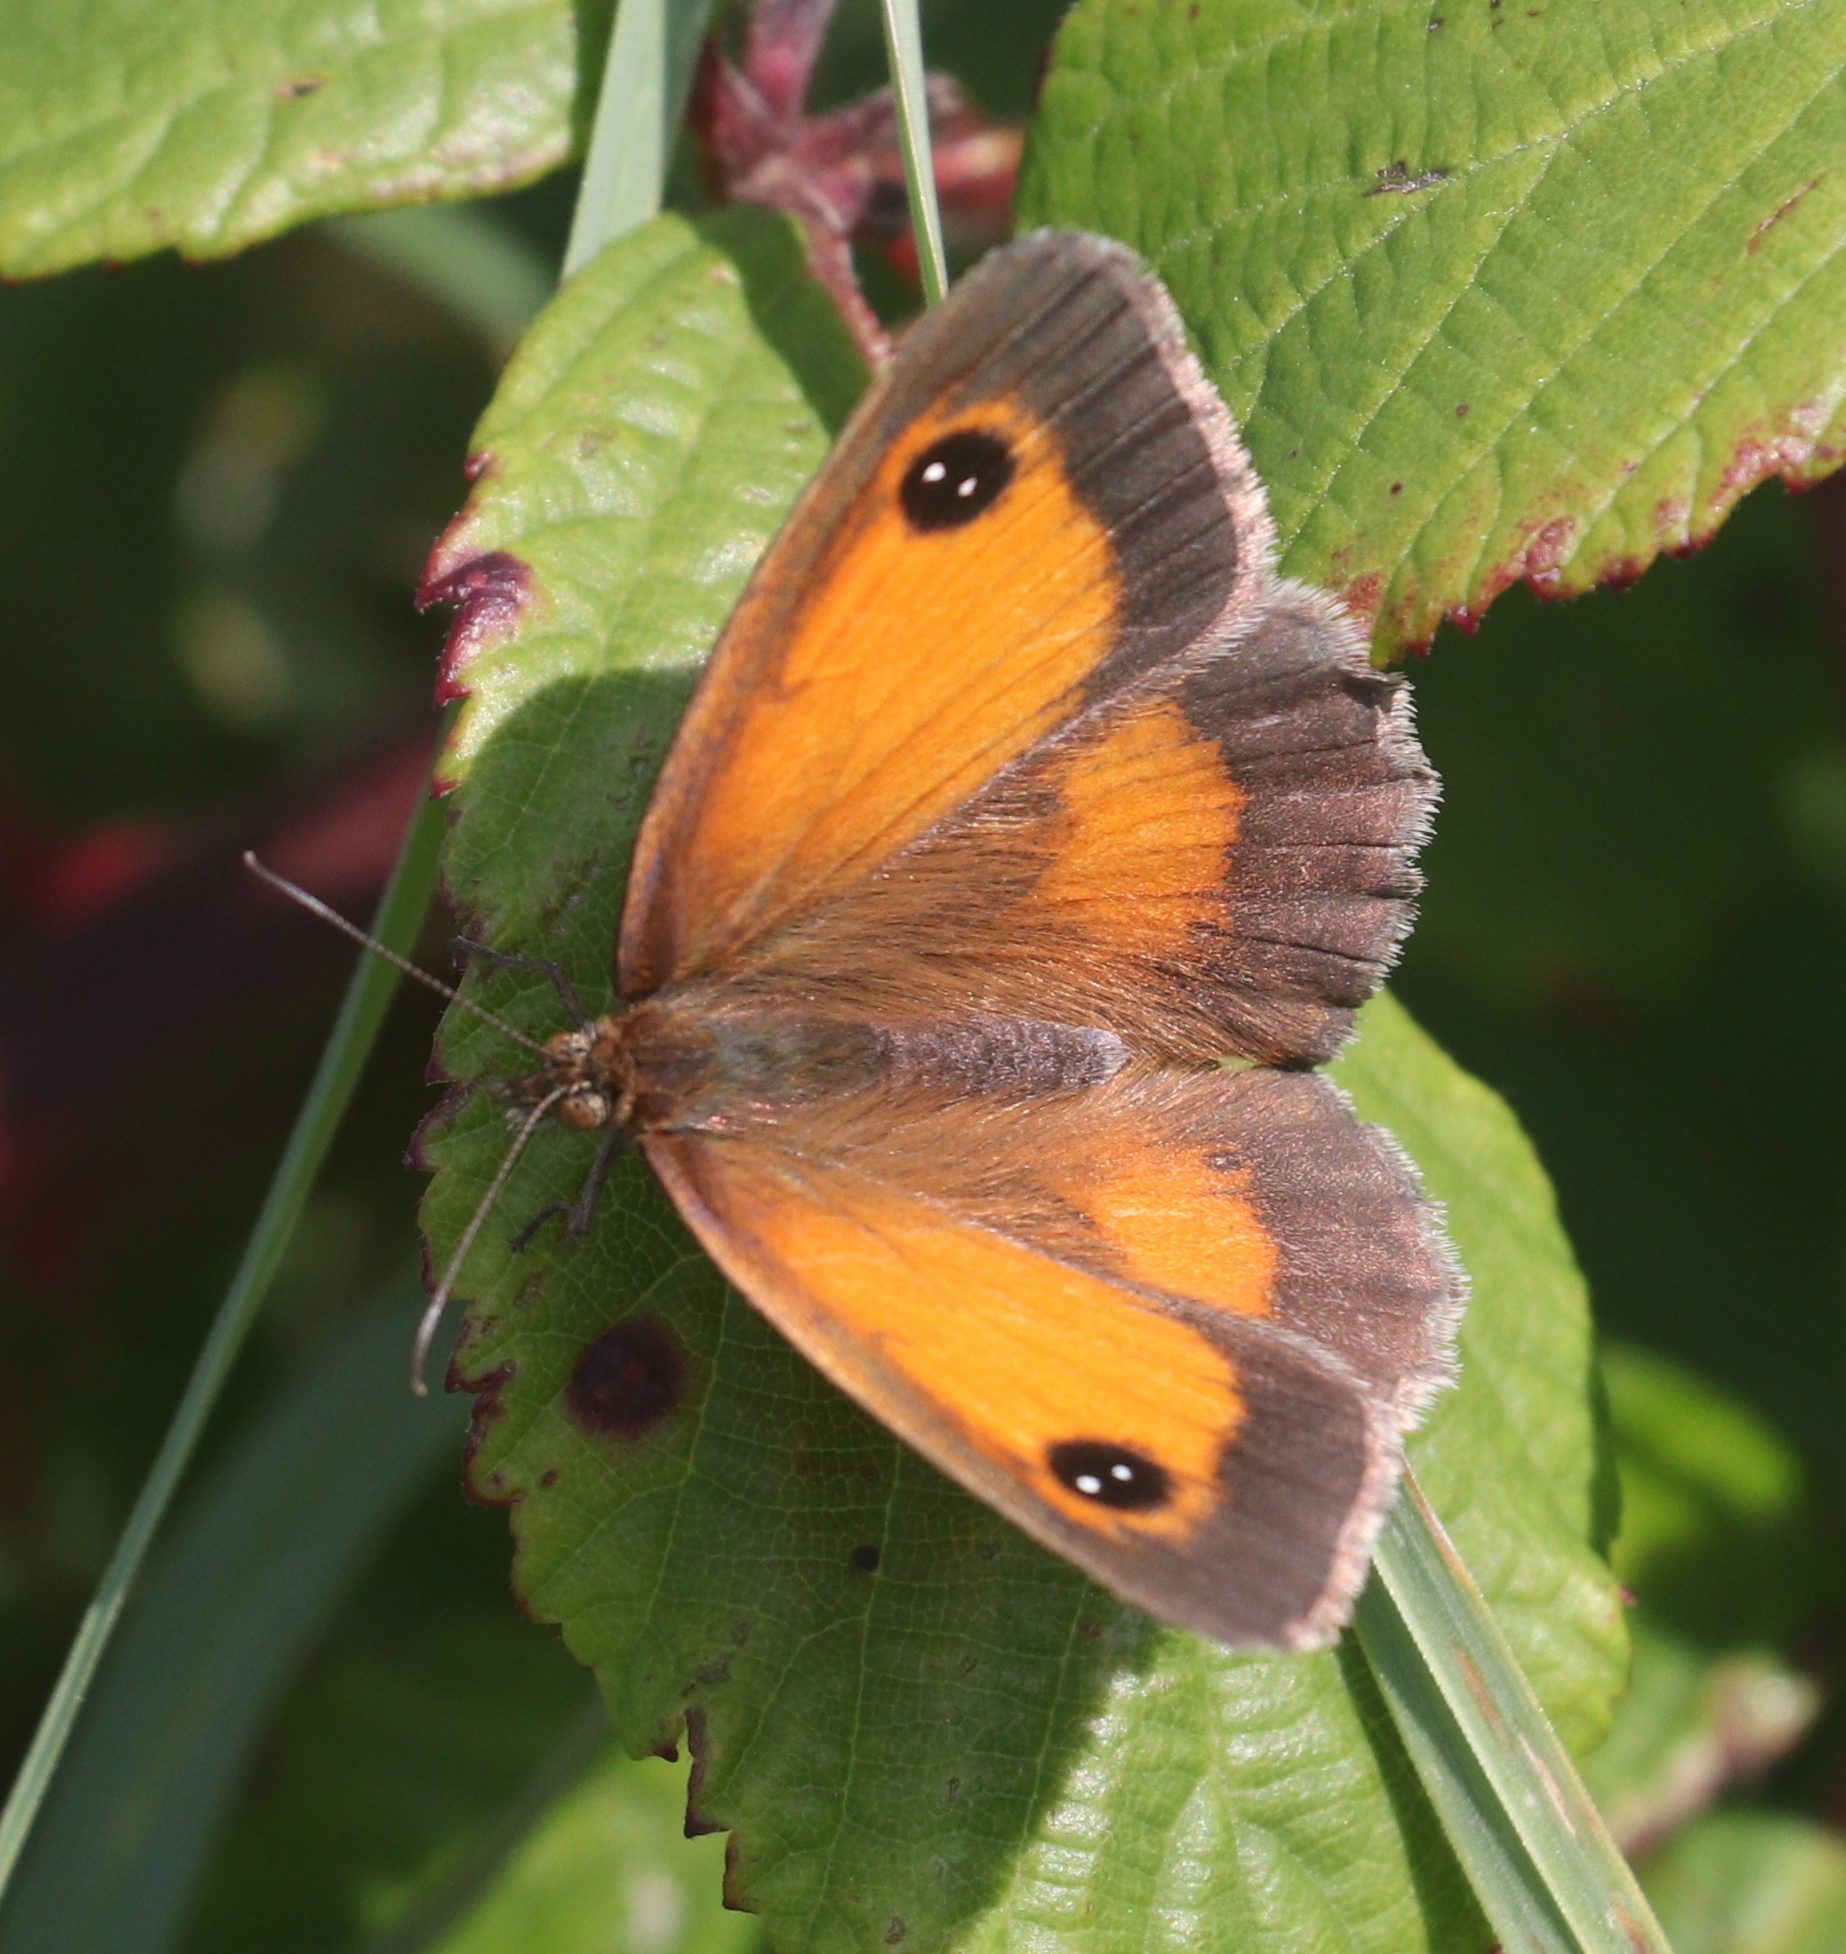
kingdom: Animalia
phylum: Arthropoda
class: Insecta
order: Lepidoptera
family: Nymphalidae
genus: Pyronia
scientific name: Pyronia tithonus
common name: Gatekeeper
